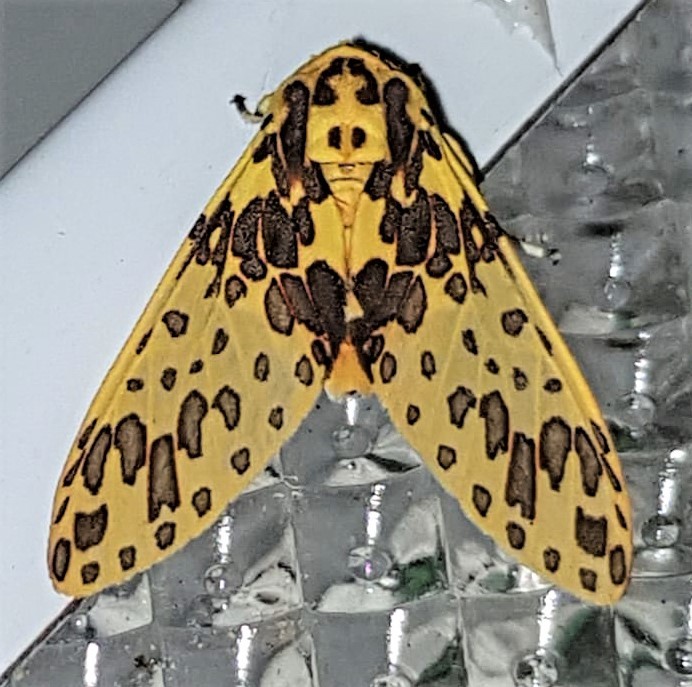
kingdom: Animalia
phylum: Arthropoda
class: Insecta
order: Lepidoptera
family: Erebidae
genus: Amaxia
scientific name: Amaxia bella
